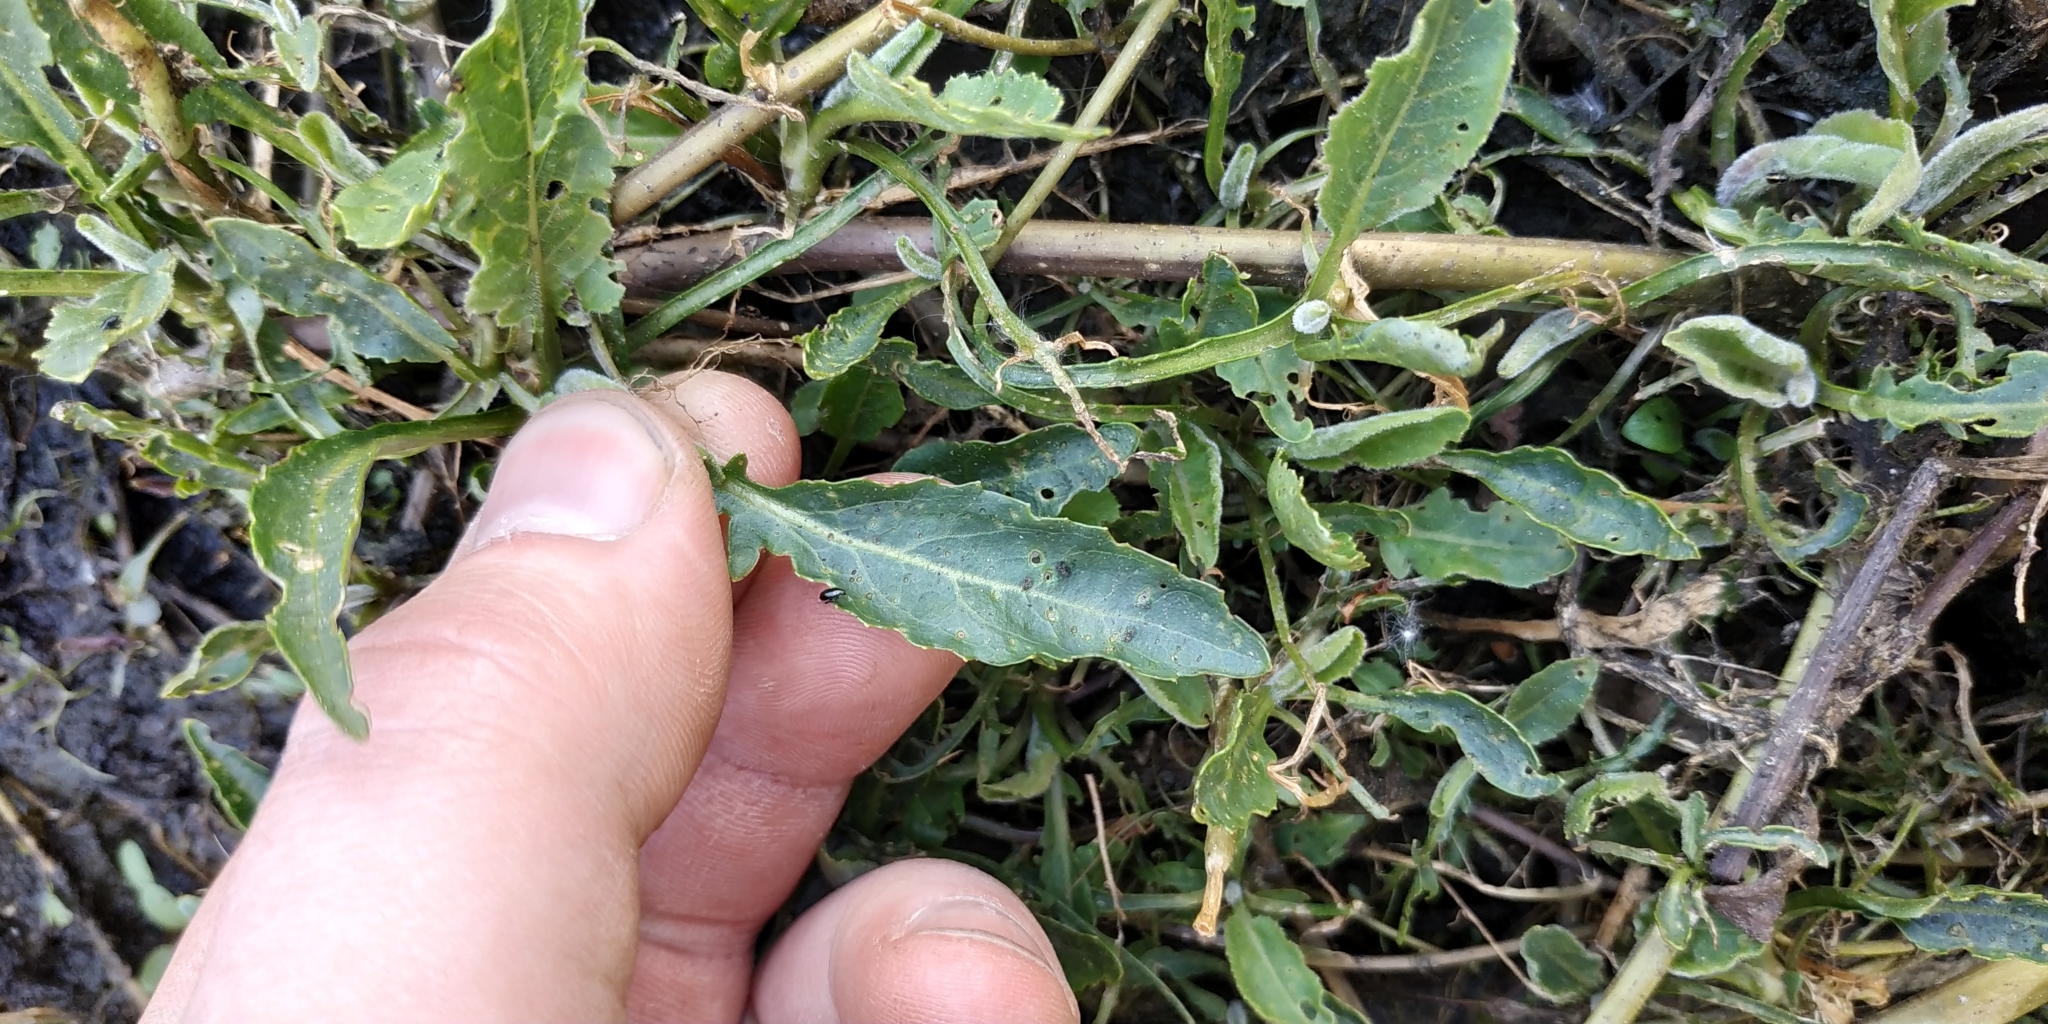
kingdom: Plantae
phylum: Tracheophyta
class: Magnoliopsida
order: Brassicales
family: Brassicaceae
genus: Rorippa
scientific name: Rorippa amphibia
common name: Great yellow-cress
